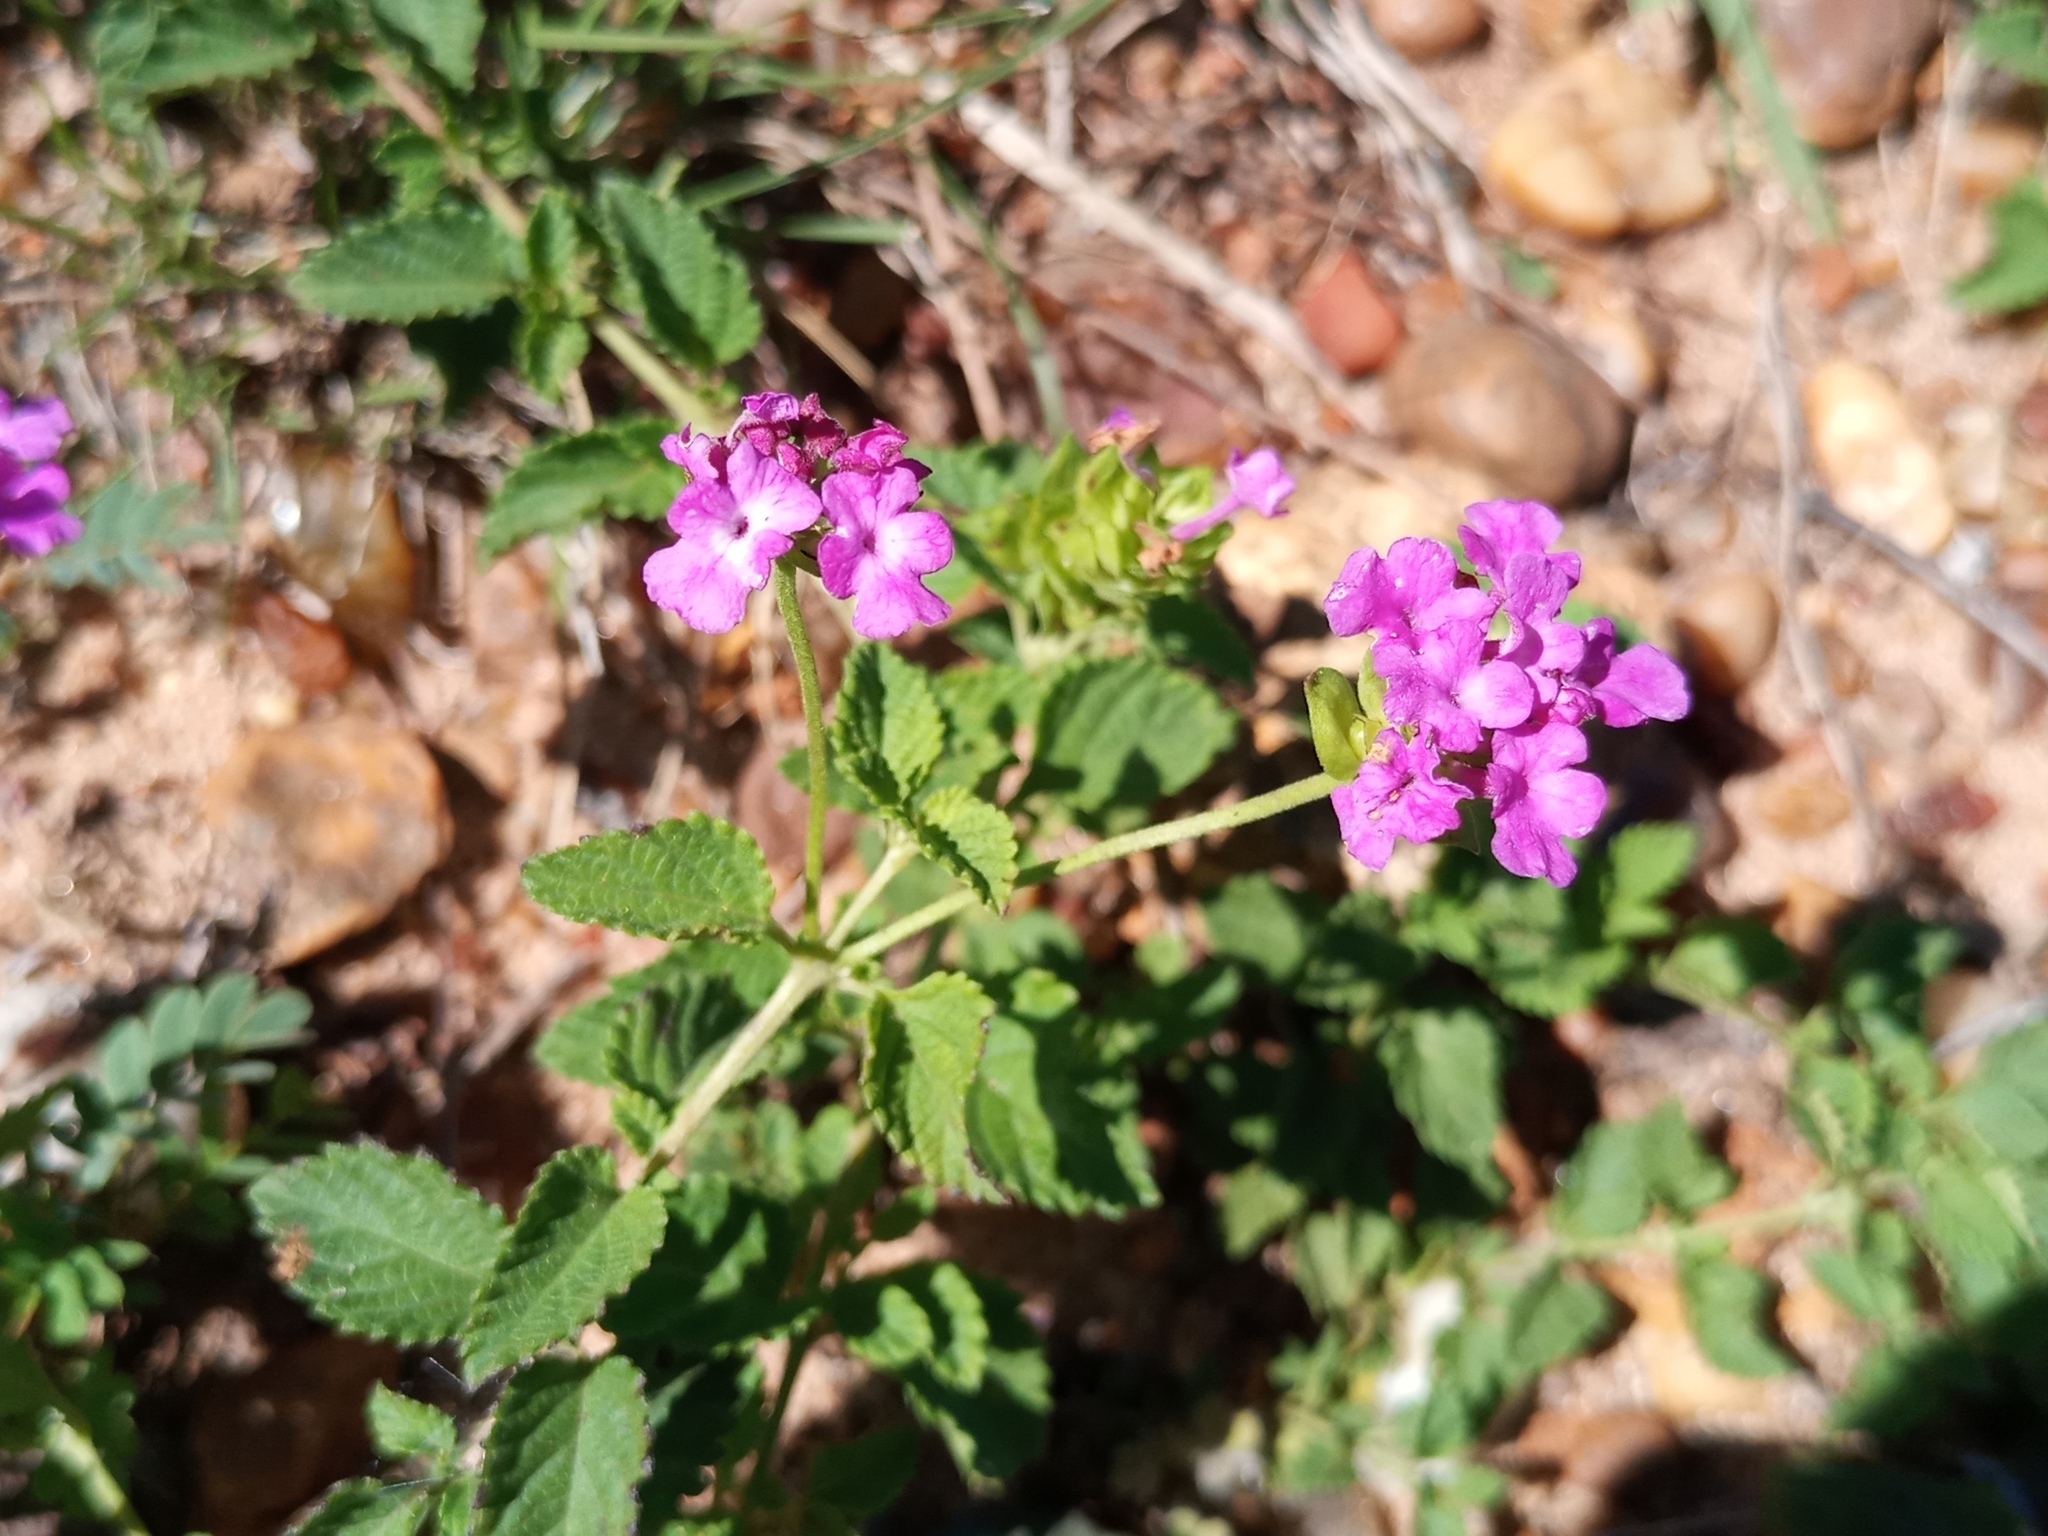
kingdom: Plantae
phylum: Tracheophyta
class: Magnoliopsida
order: Lamiales
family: Verbenaceae
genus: Lantana
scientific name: Lantana montevidensis
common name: Trailing shrubverbena
